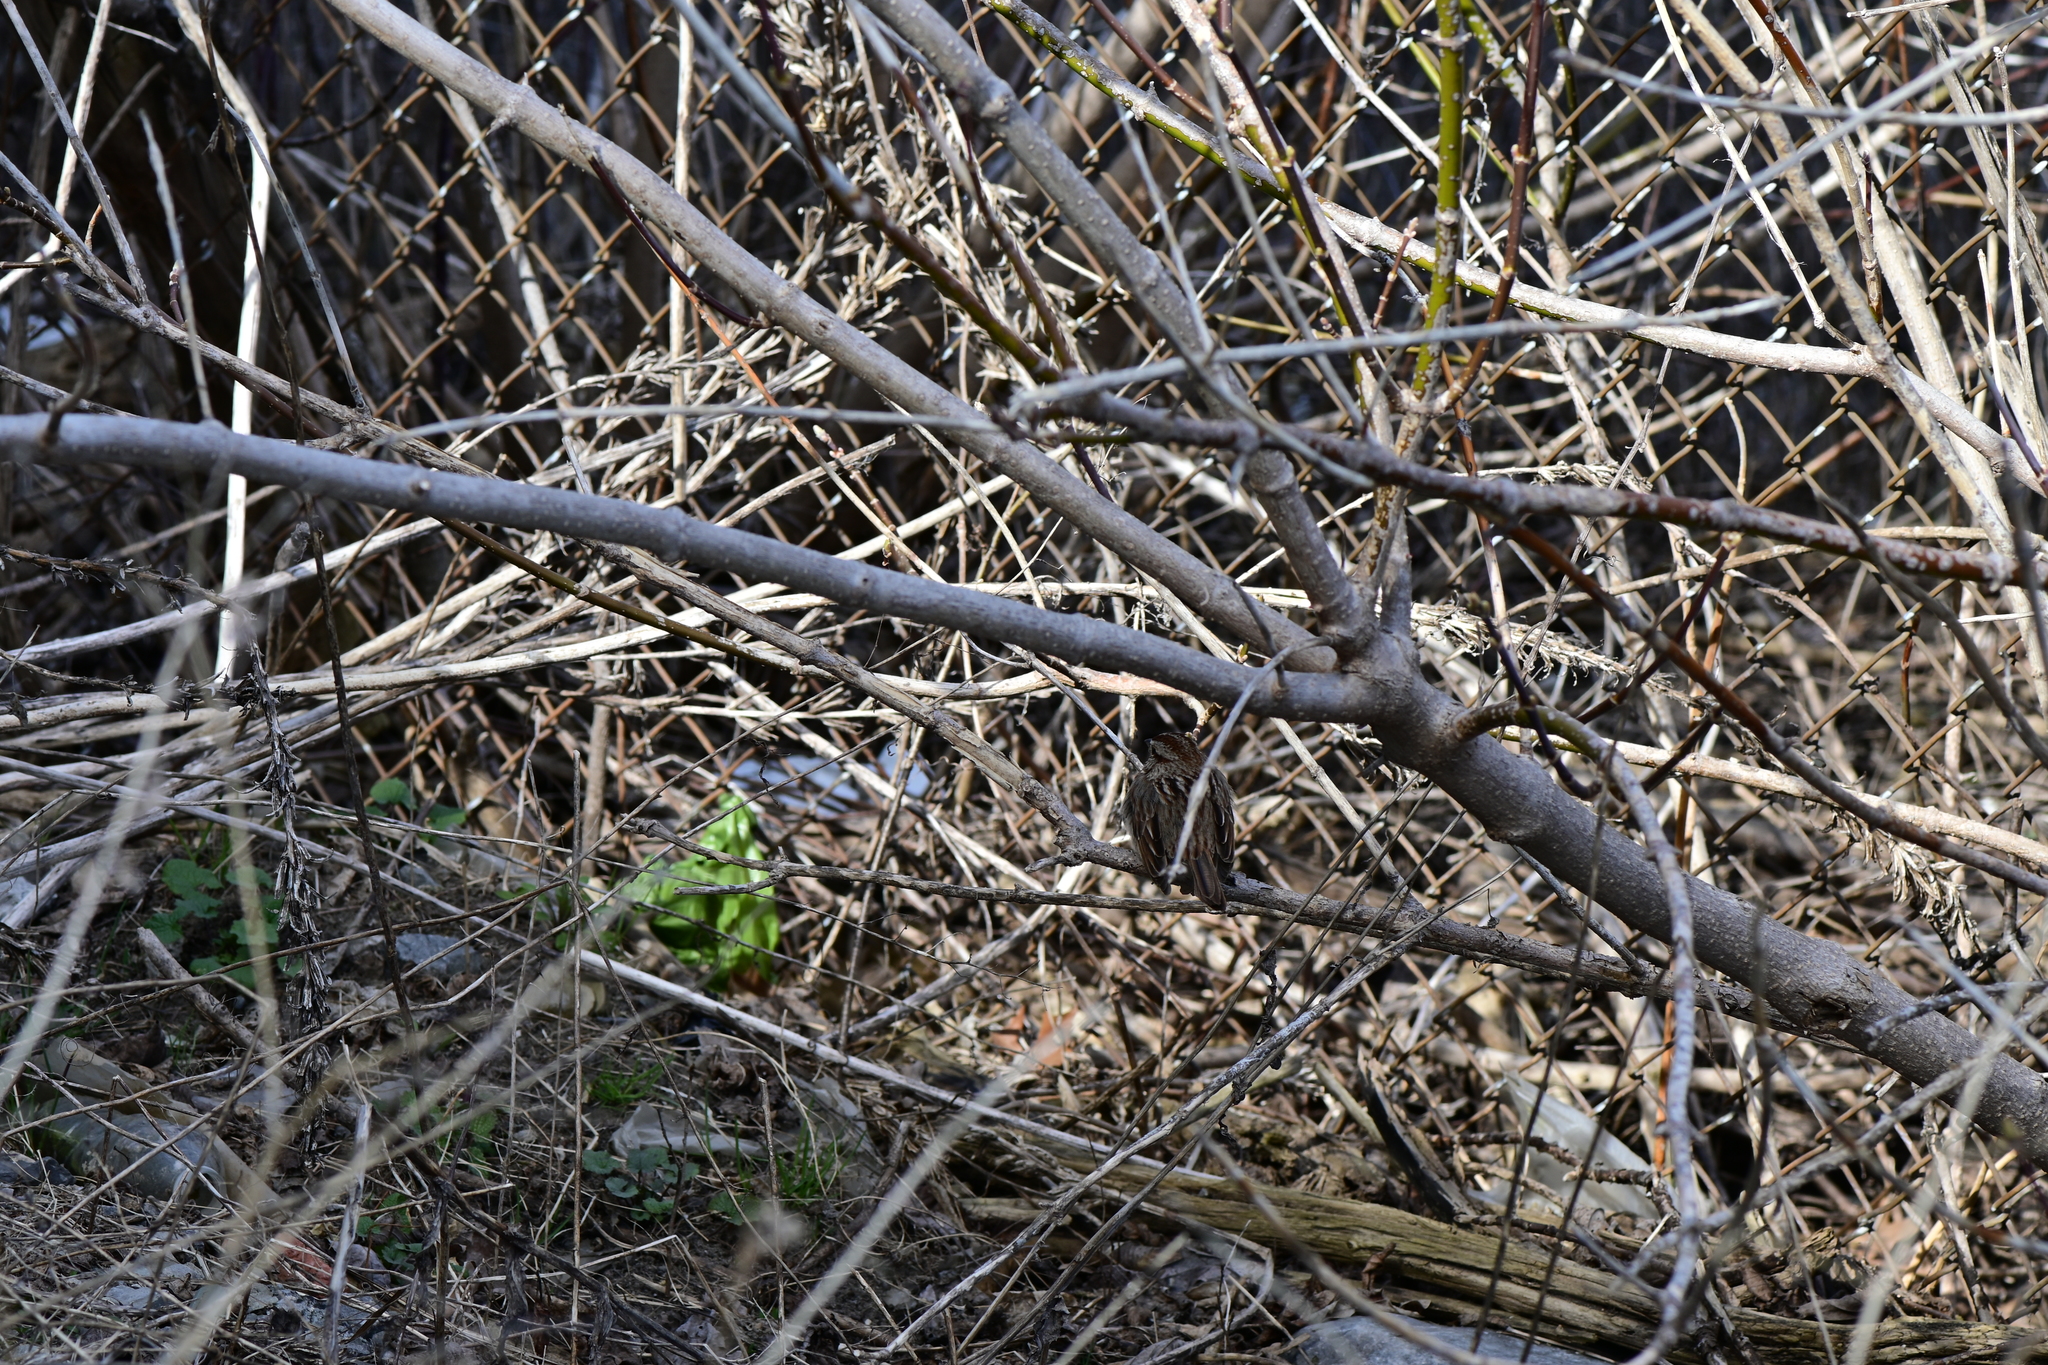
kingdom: Animalia
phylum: Chordata
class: Aves
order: Passeriformes
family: Passerellidae
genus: Melospiza
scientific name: Melospiza melodia
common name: Song sparrow
